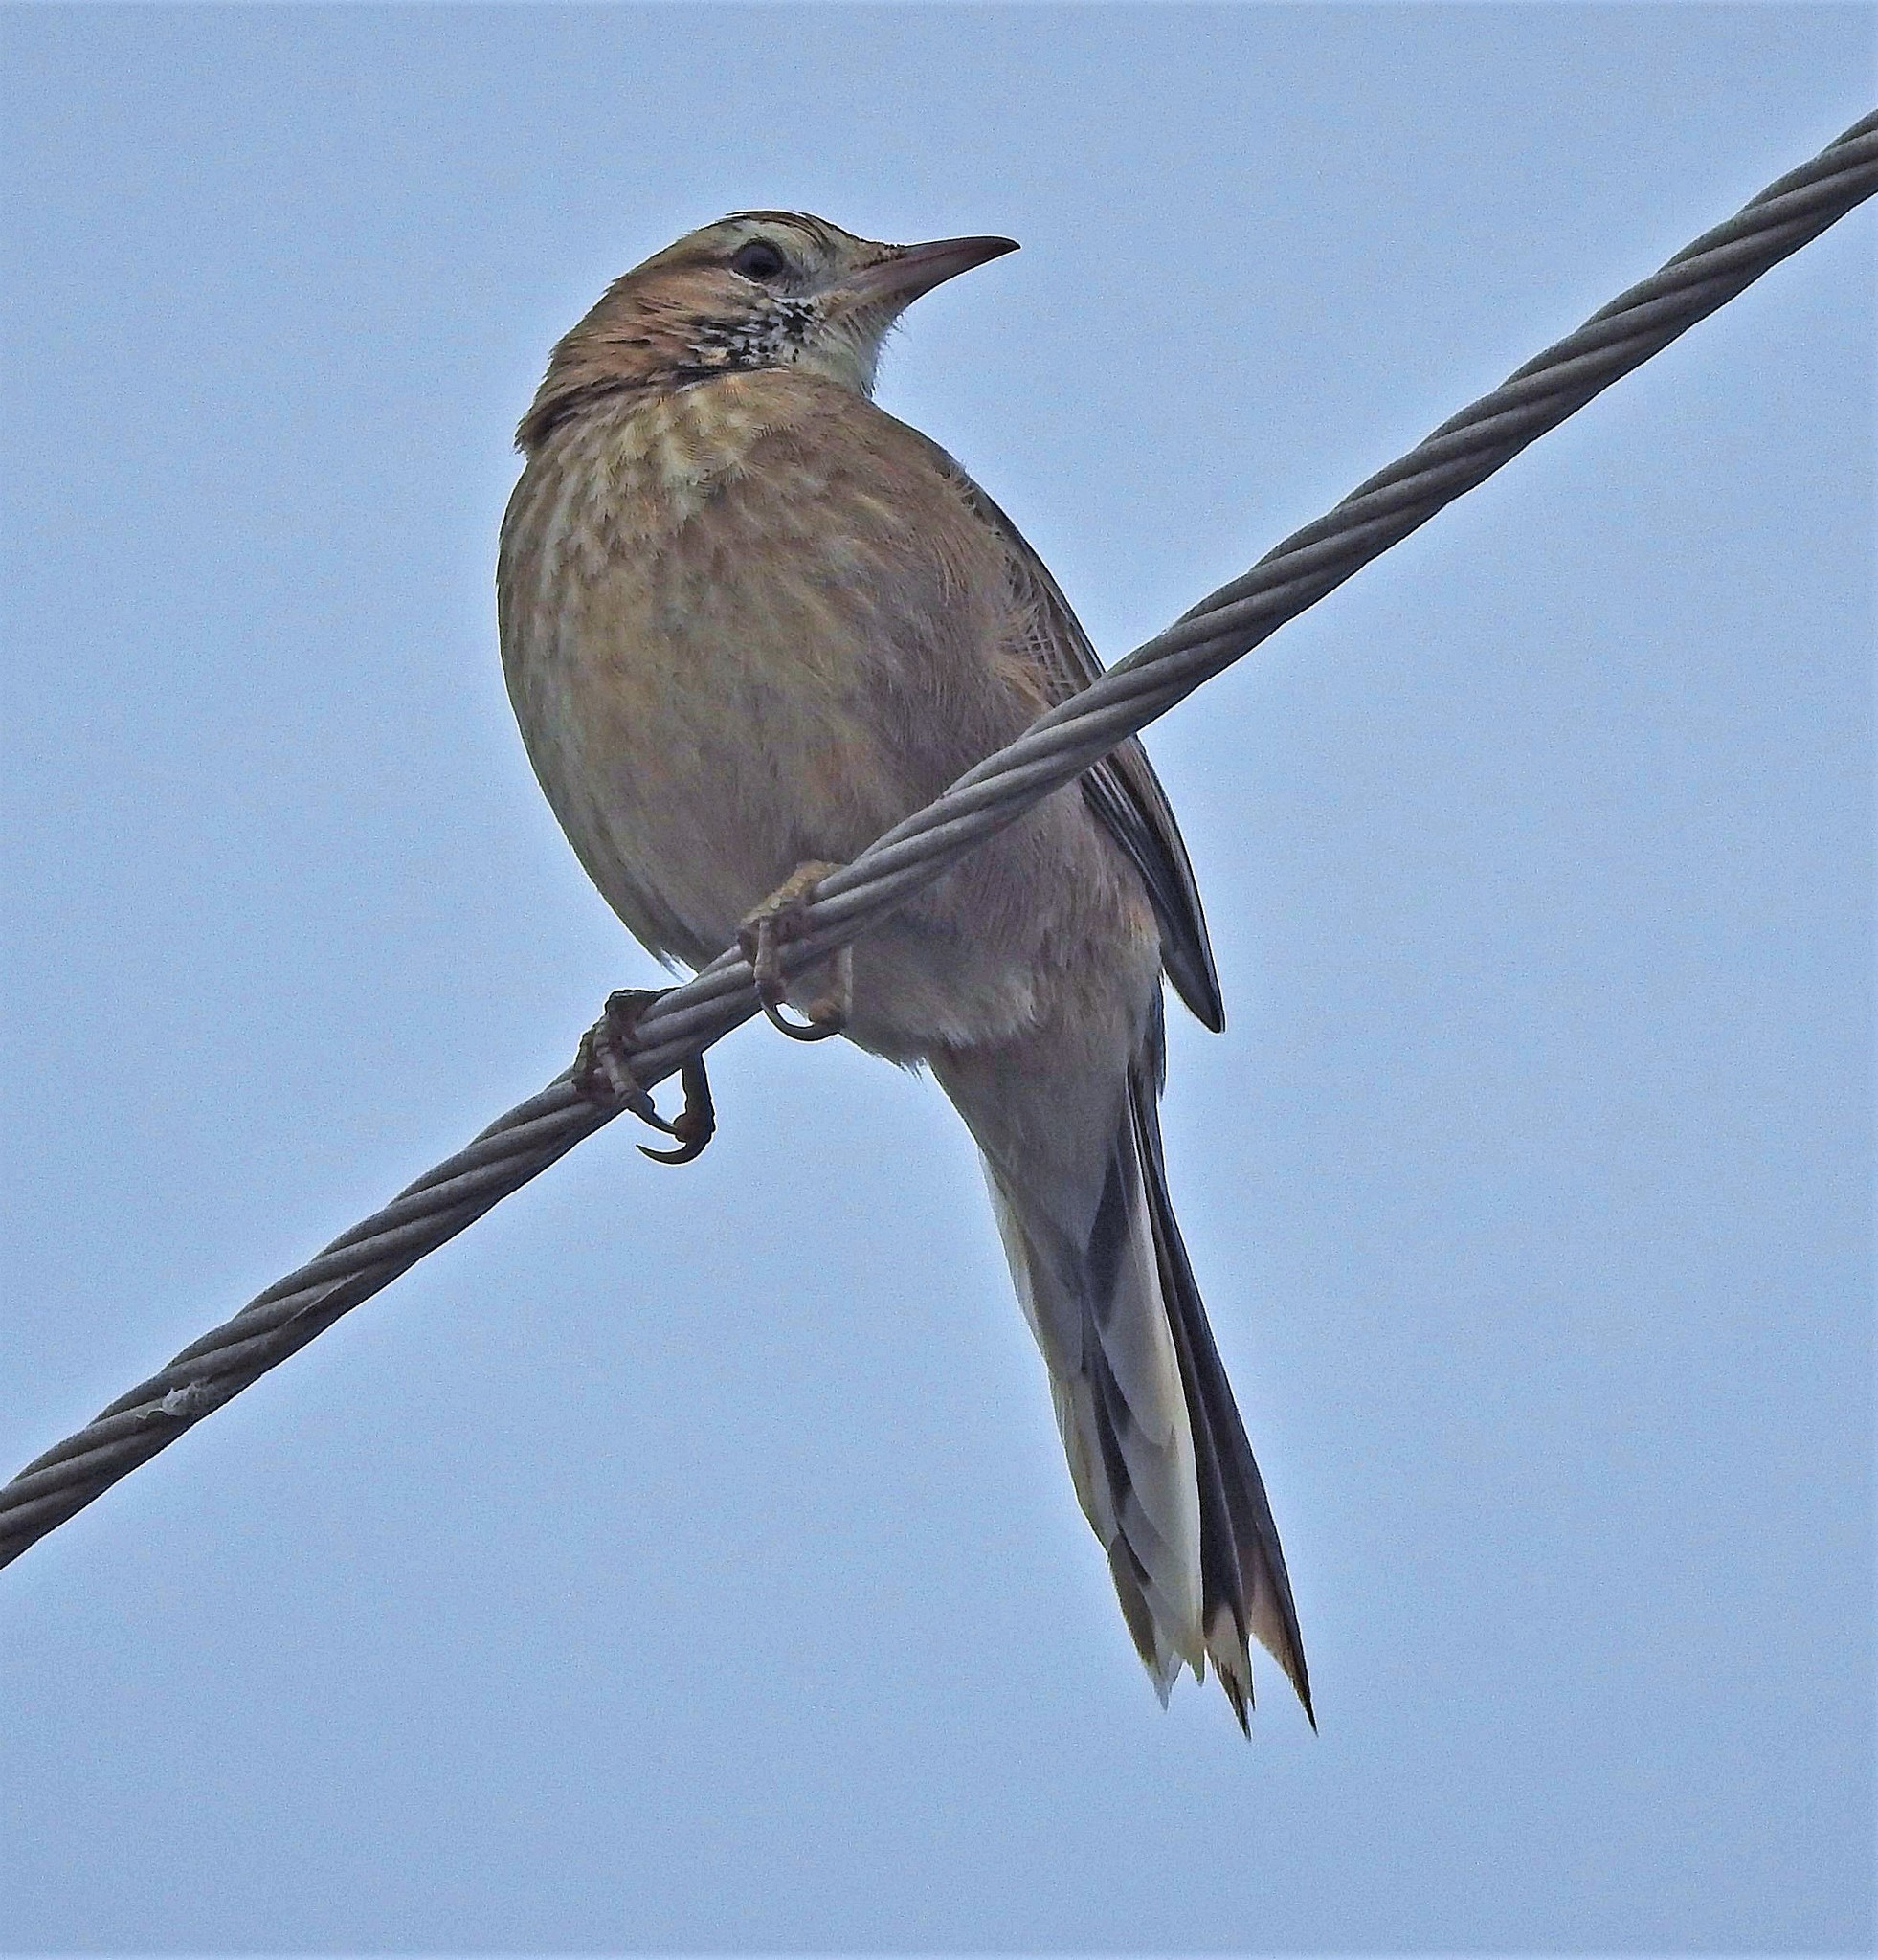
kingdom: Animalia
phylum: Chordata
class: Aves
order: Passeriformes
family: Furnariidae
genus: Anumbius
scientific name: Anumbius annumbi
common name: Firewood-gatherer
